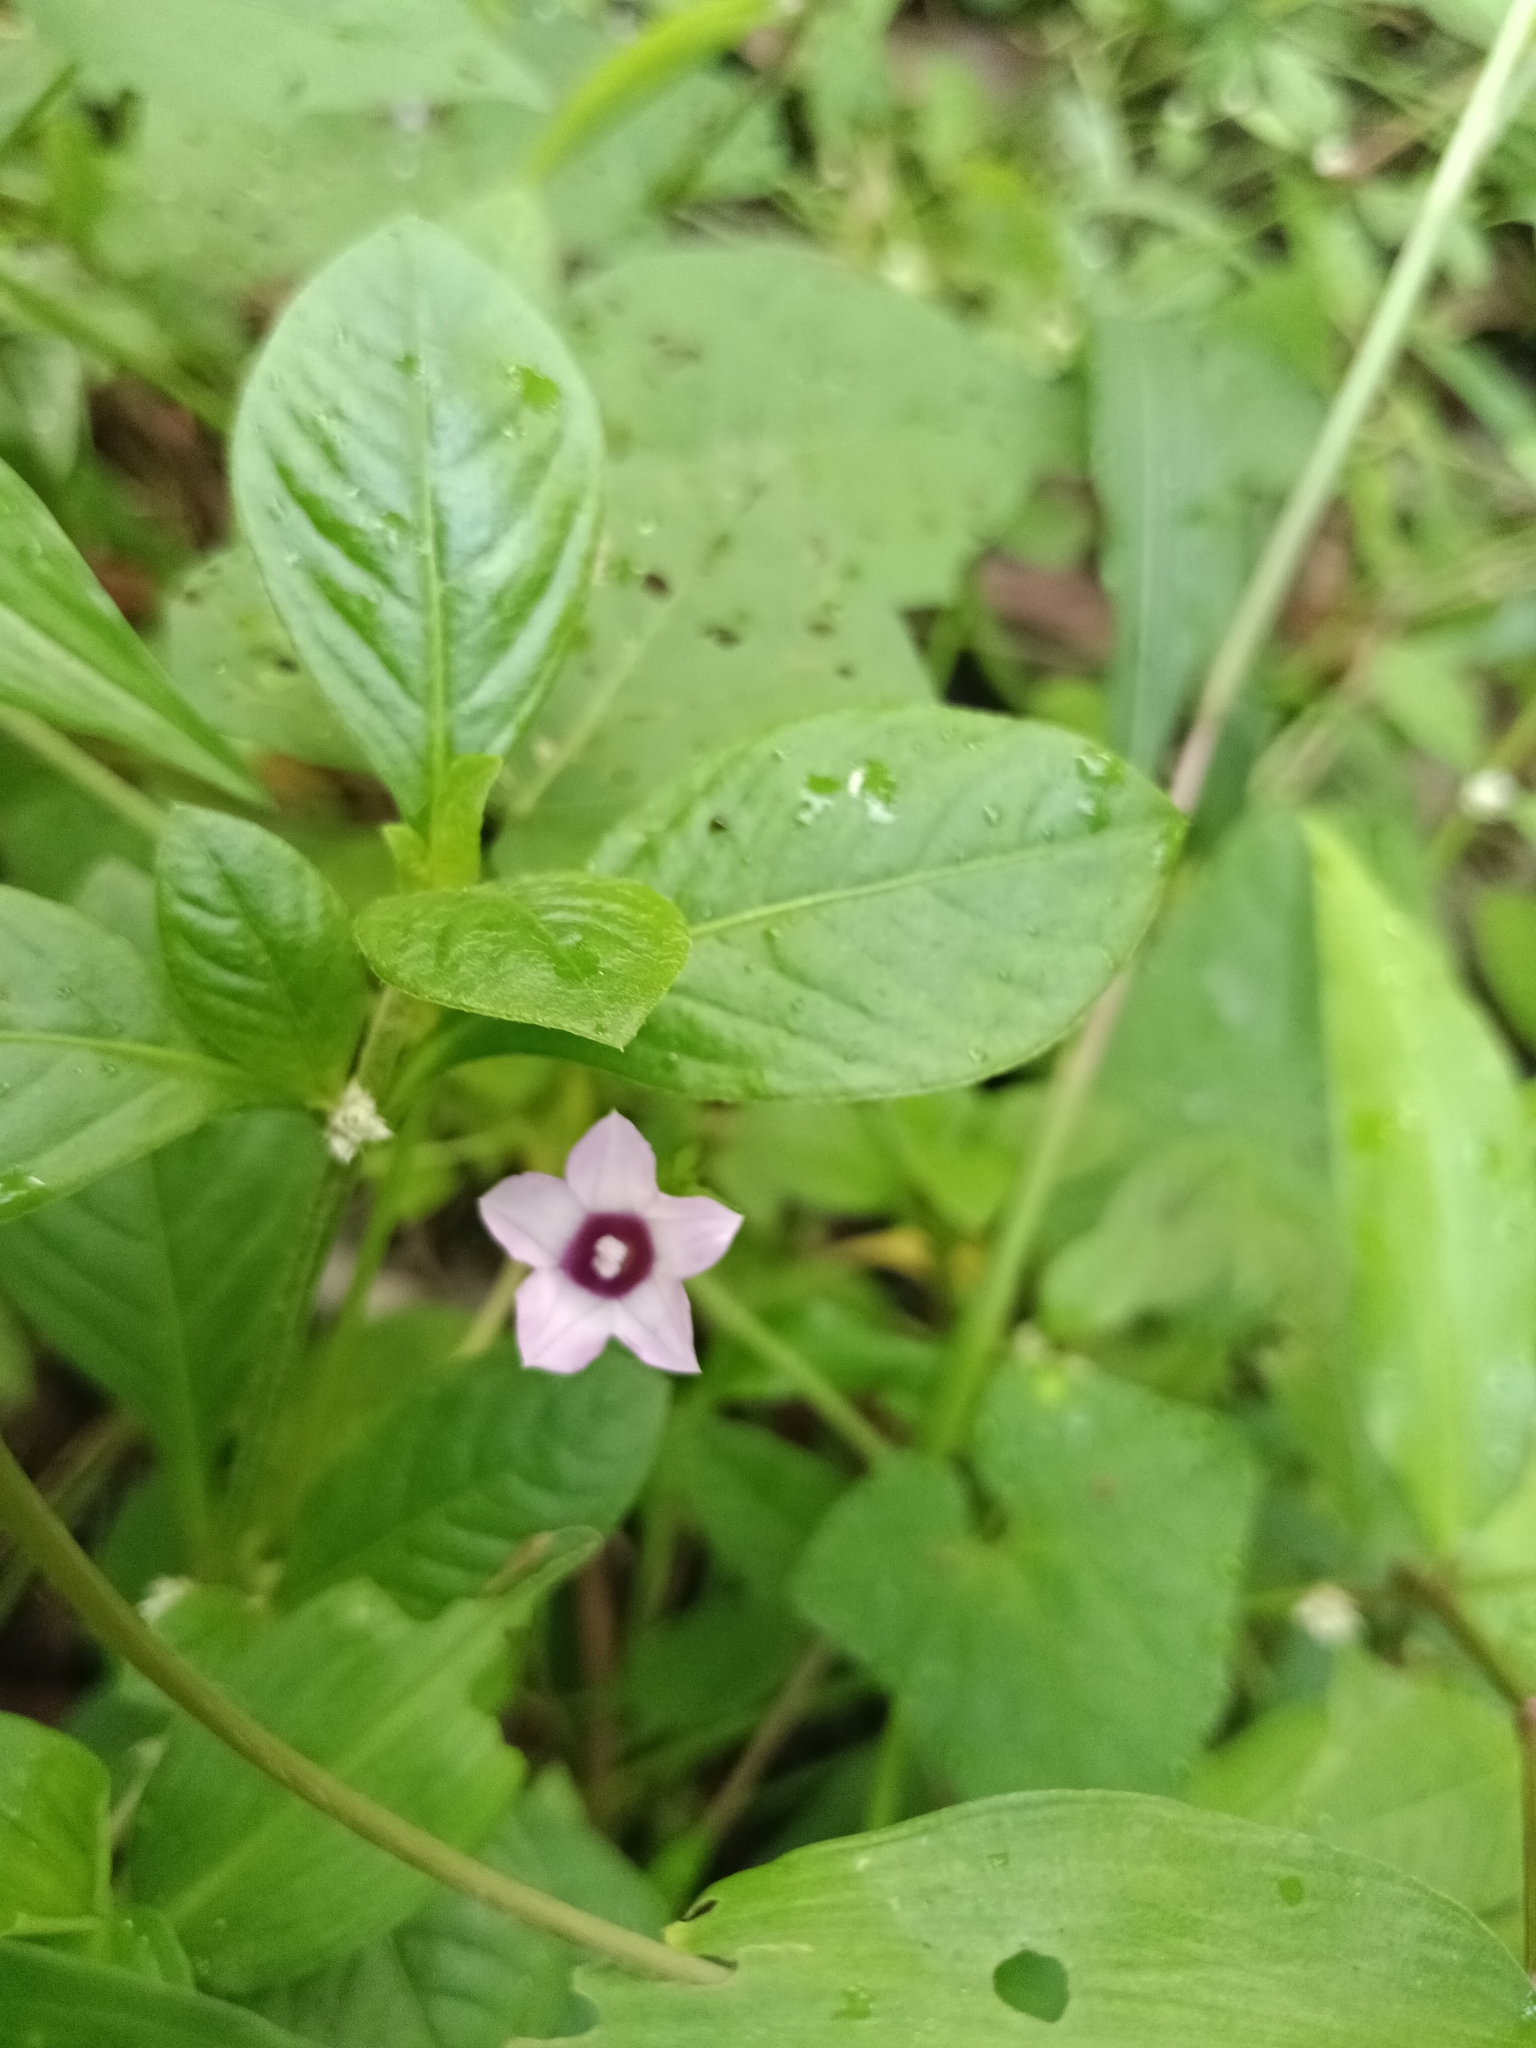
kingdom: Plantae
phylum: Tracheophyta
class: Magnoliopsida
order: Solanales
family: Convolvulaceae
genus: Ipomoea
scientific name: Ipomoea triloba
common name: Little-bell
